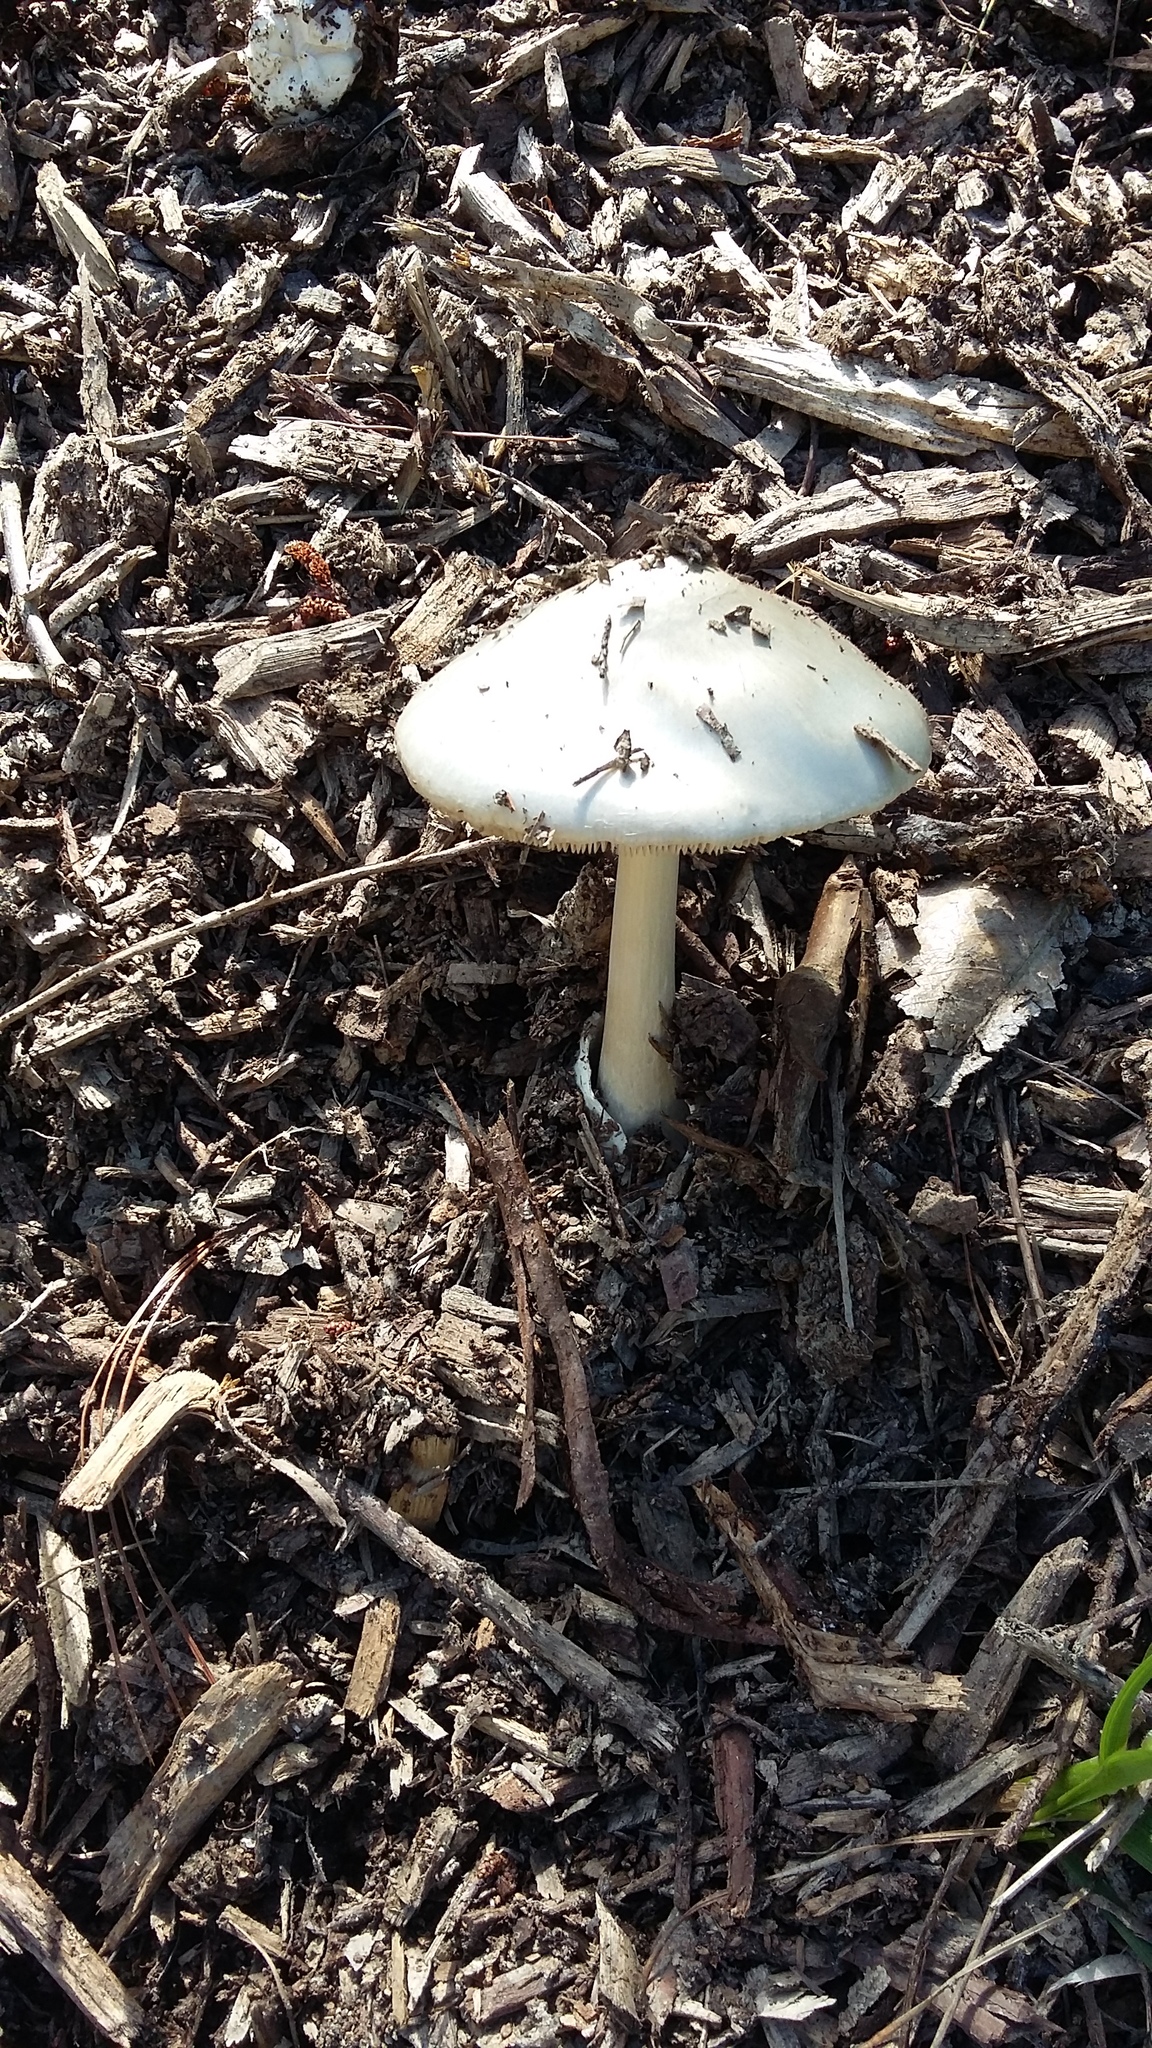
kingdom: Fungi
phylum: Basidiomycota
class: Agaricomycetes
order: Agaricales
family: Pluteaceae
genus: Volvopluteus
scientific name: Volvopluteus gloiocephalus
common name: Stubble rosegill
